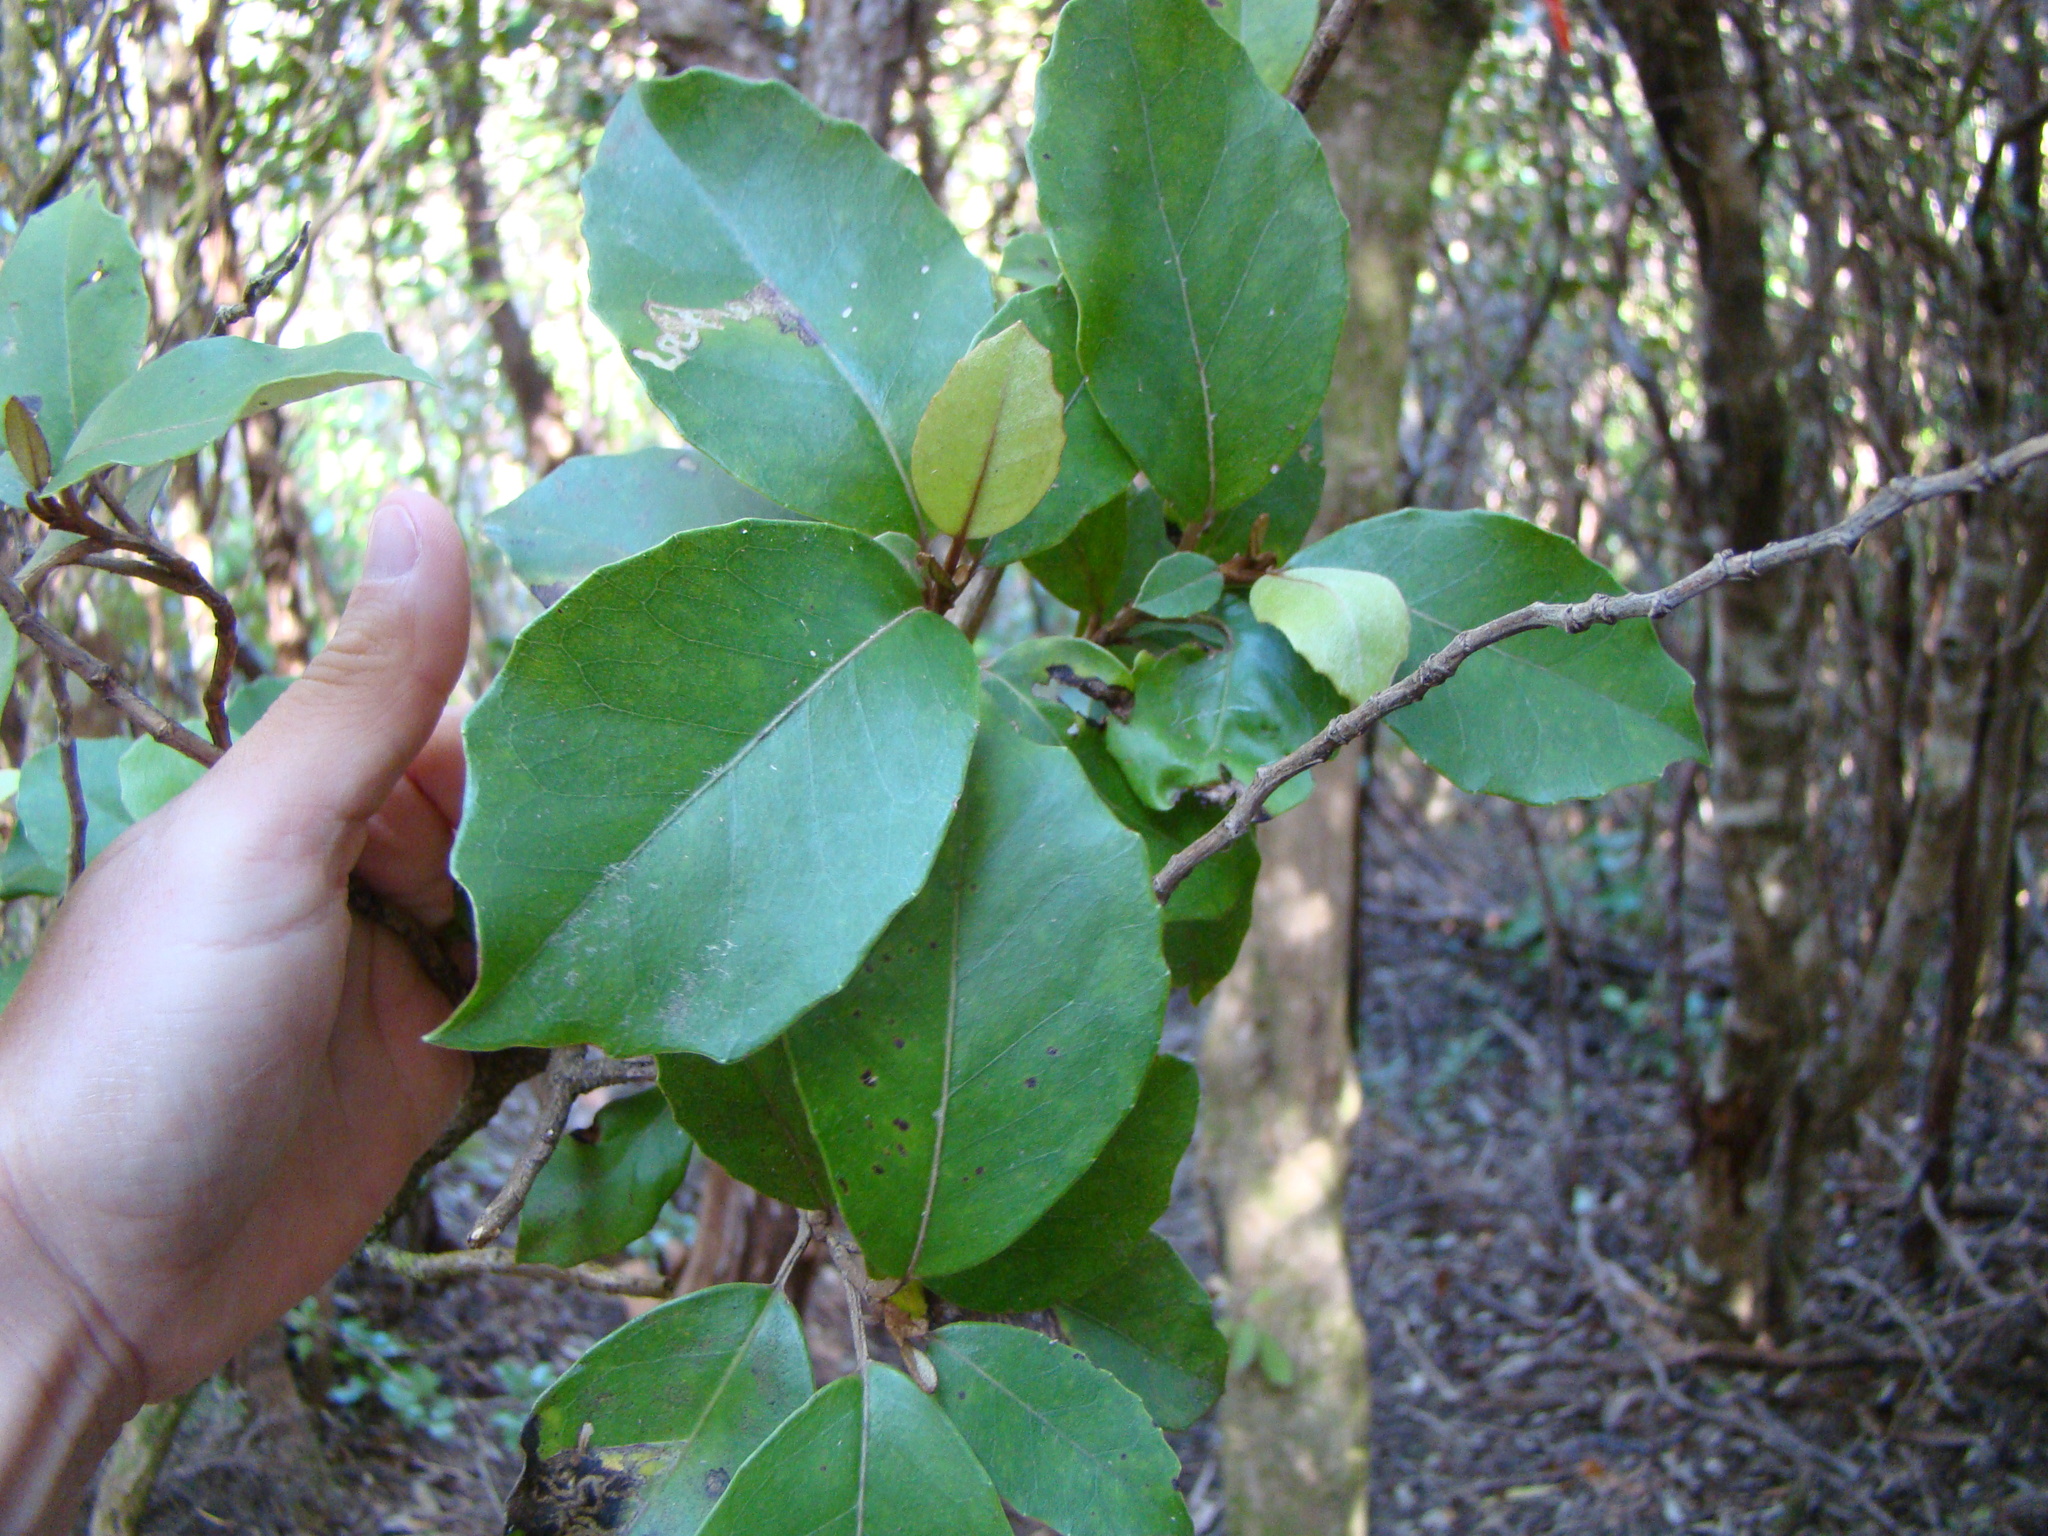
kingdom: Plantae
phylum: Tracheophyta
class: Magnoliopsida
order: Asterales
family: Asteraceae
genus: Olearia
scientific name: Olearia arborescens
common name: Glossy tree daisy
